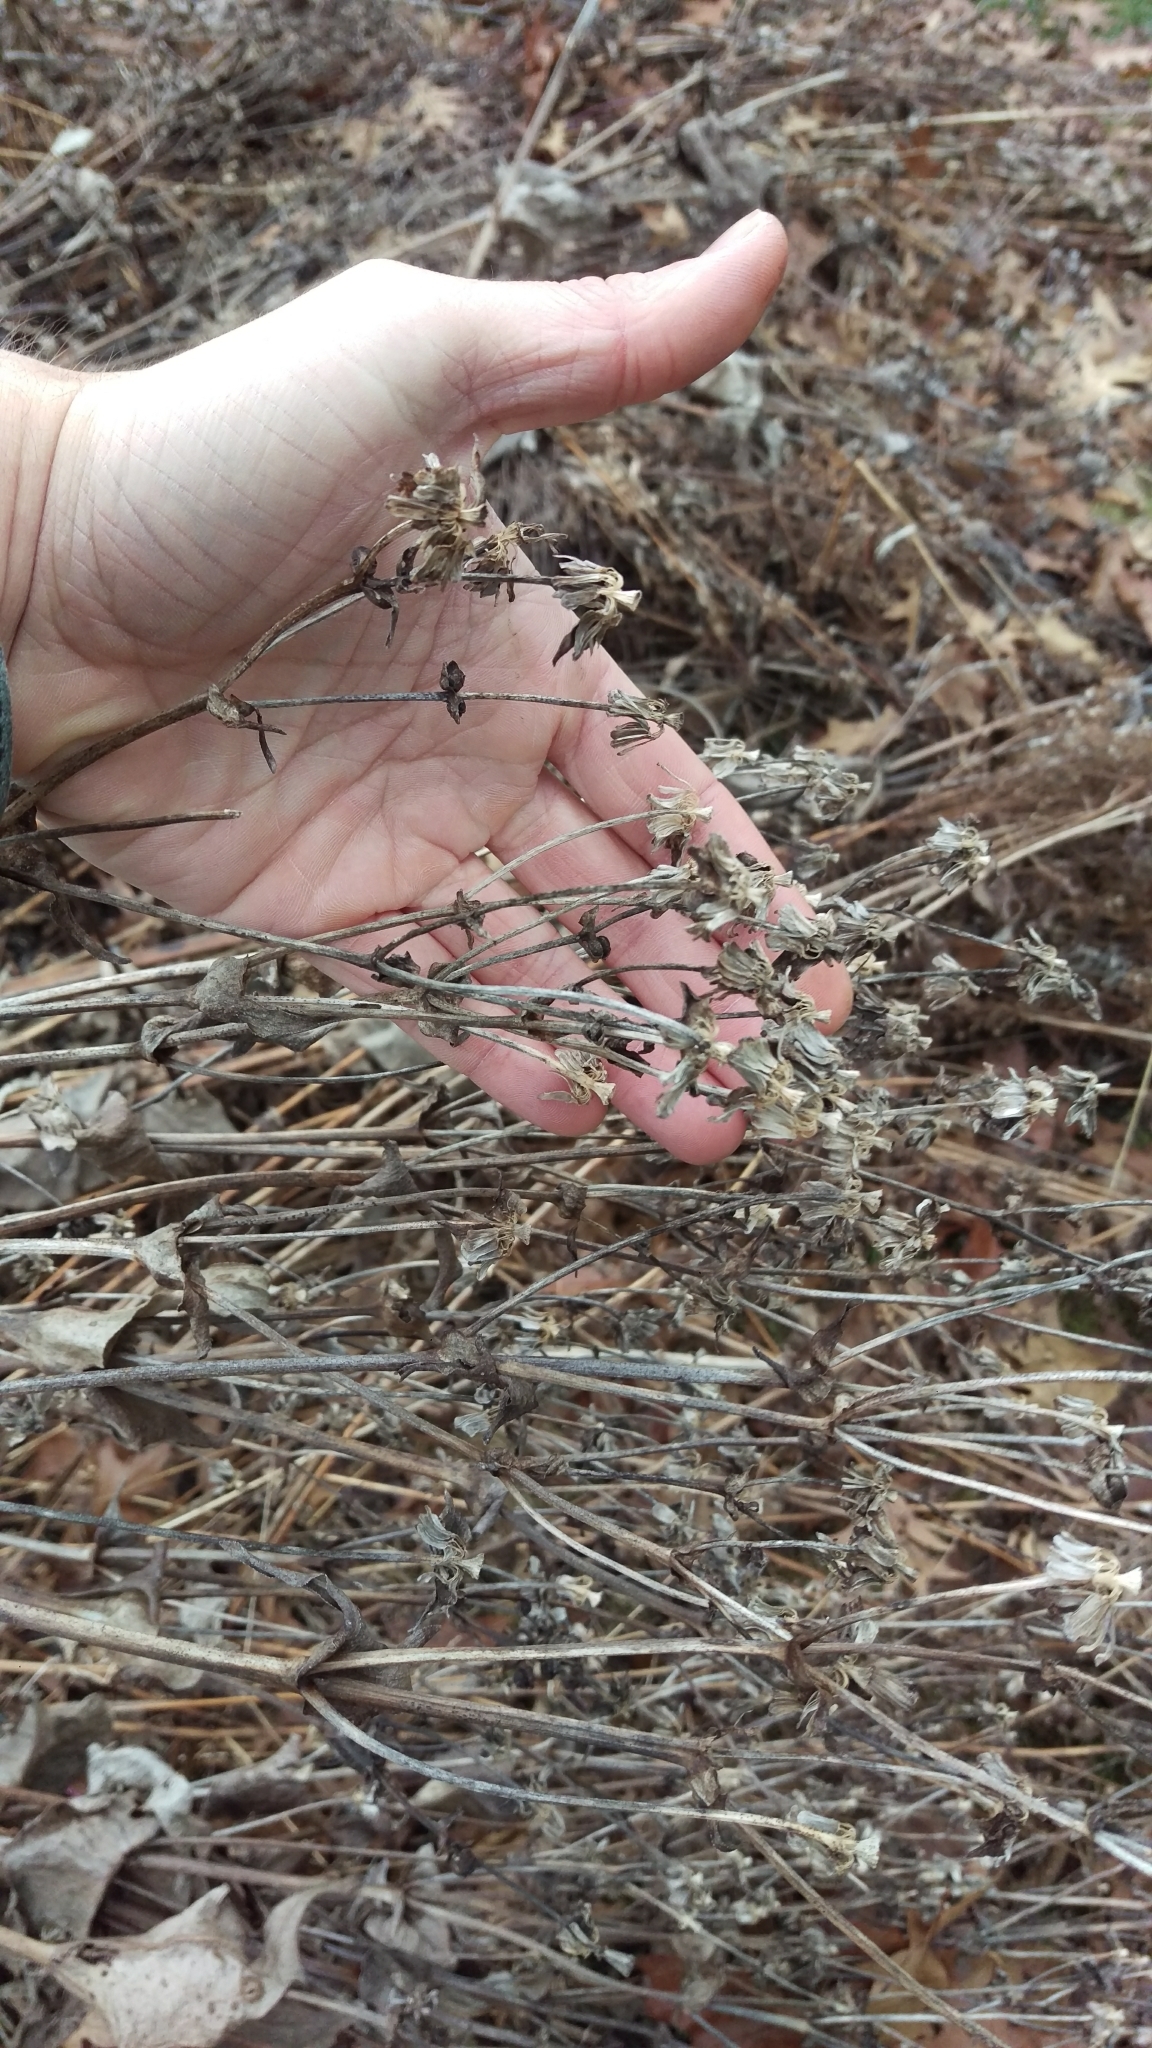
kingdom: Plantae
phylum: Tracheophyta
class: Magnoliopsida
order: Asterales
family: Asteraceae
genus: Silphium
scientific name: Silphium perfoliatum
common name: Cup-plant
